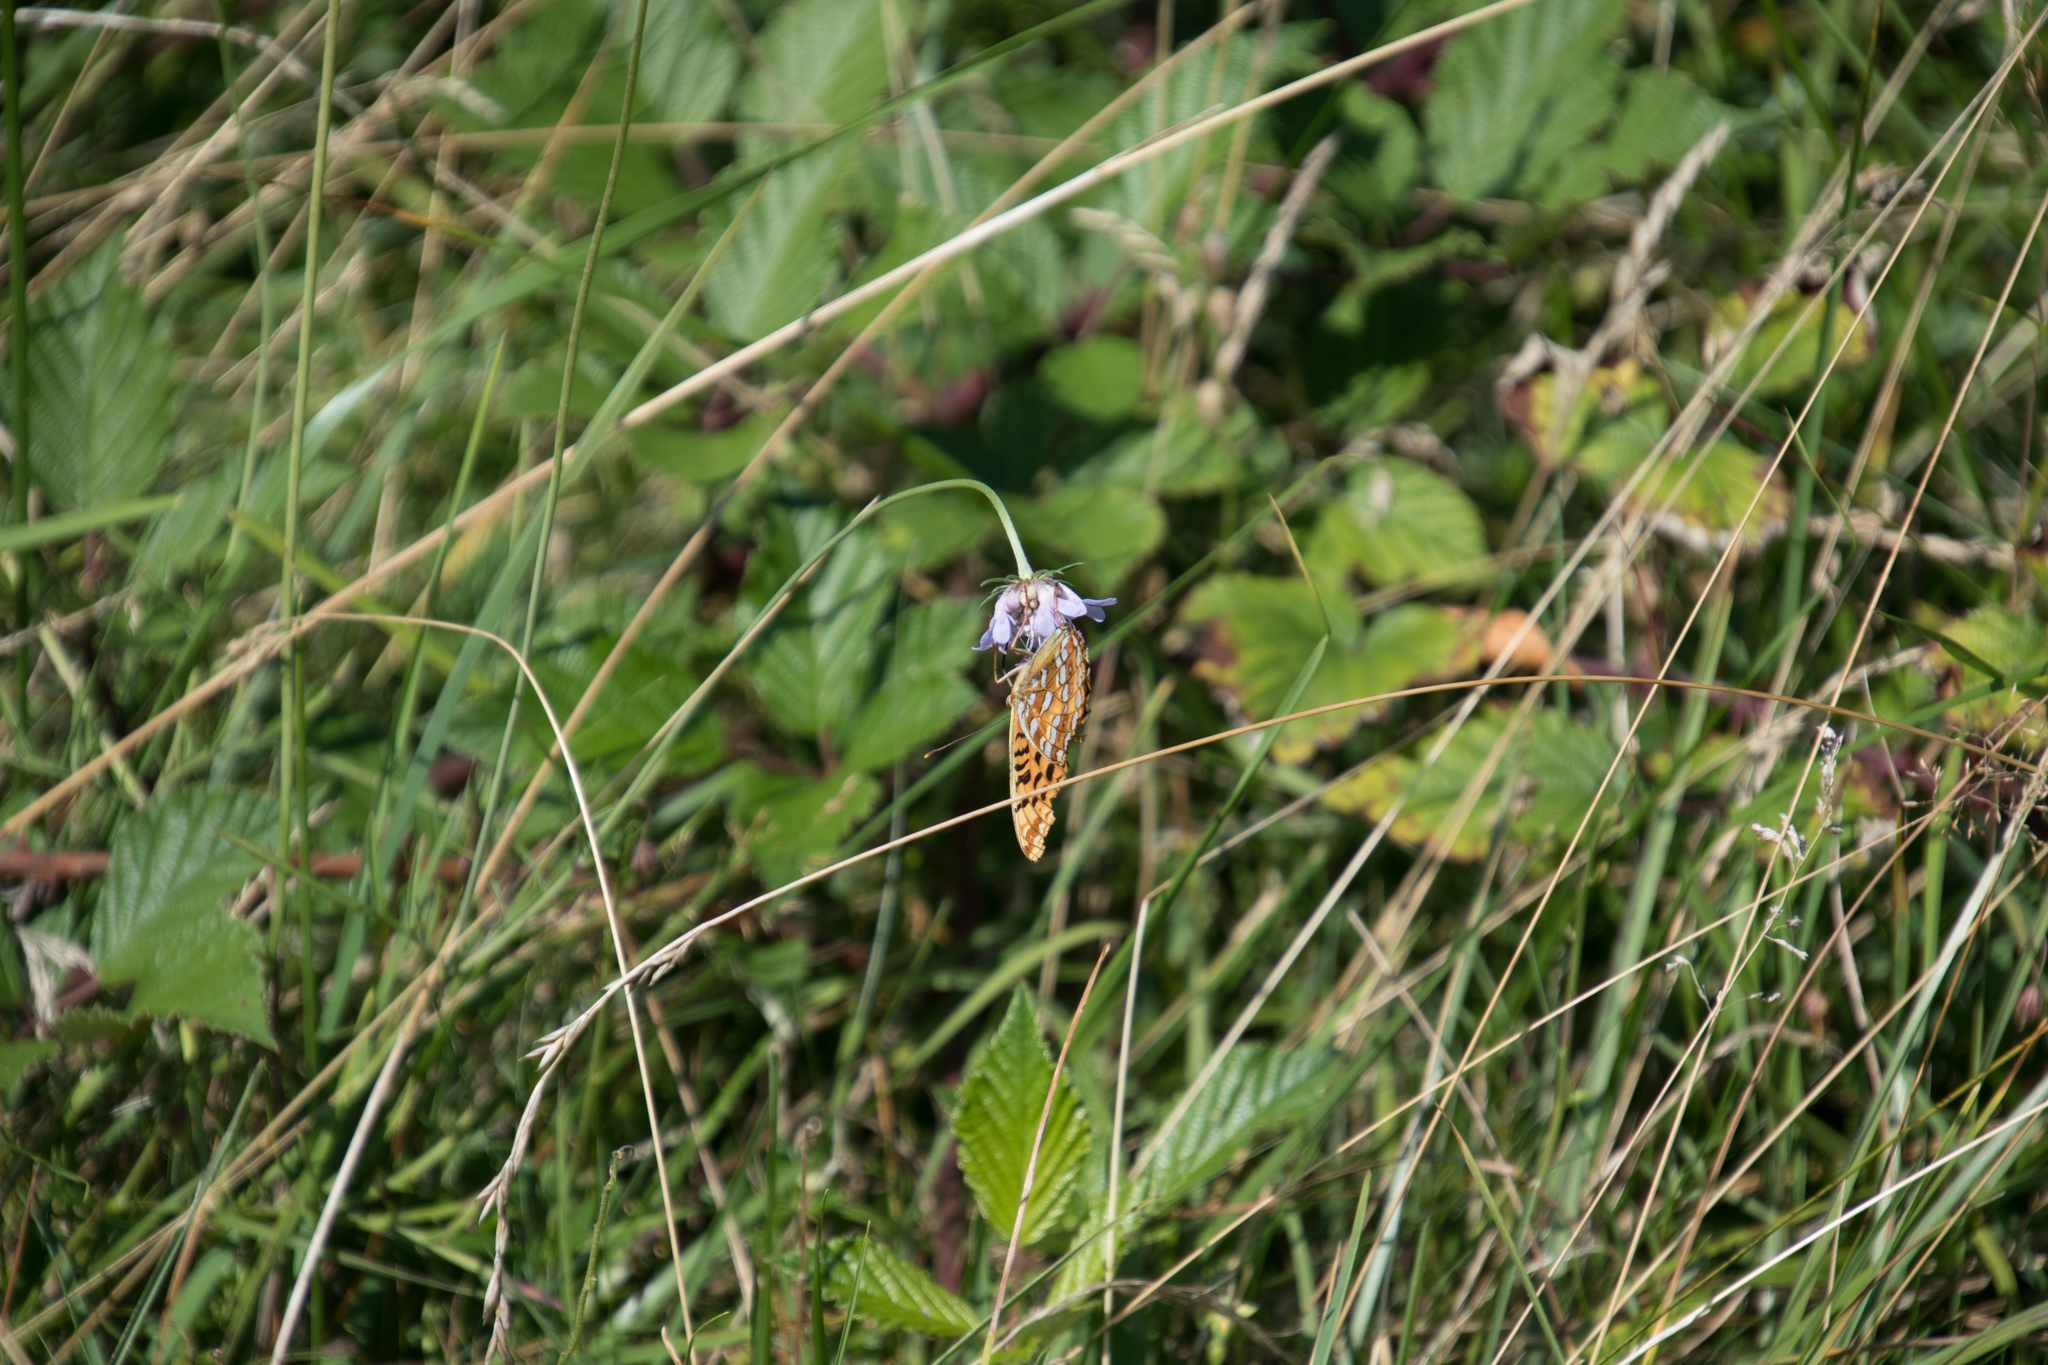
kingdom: Animalia
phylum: Arthropoda
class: Insecta
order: Lepidoptera
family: Nymphalidae
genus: Fabriciana
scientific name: Fabriciana adippe
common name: High brown fritillary
